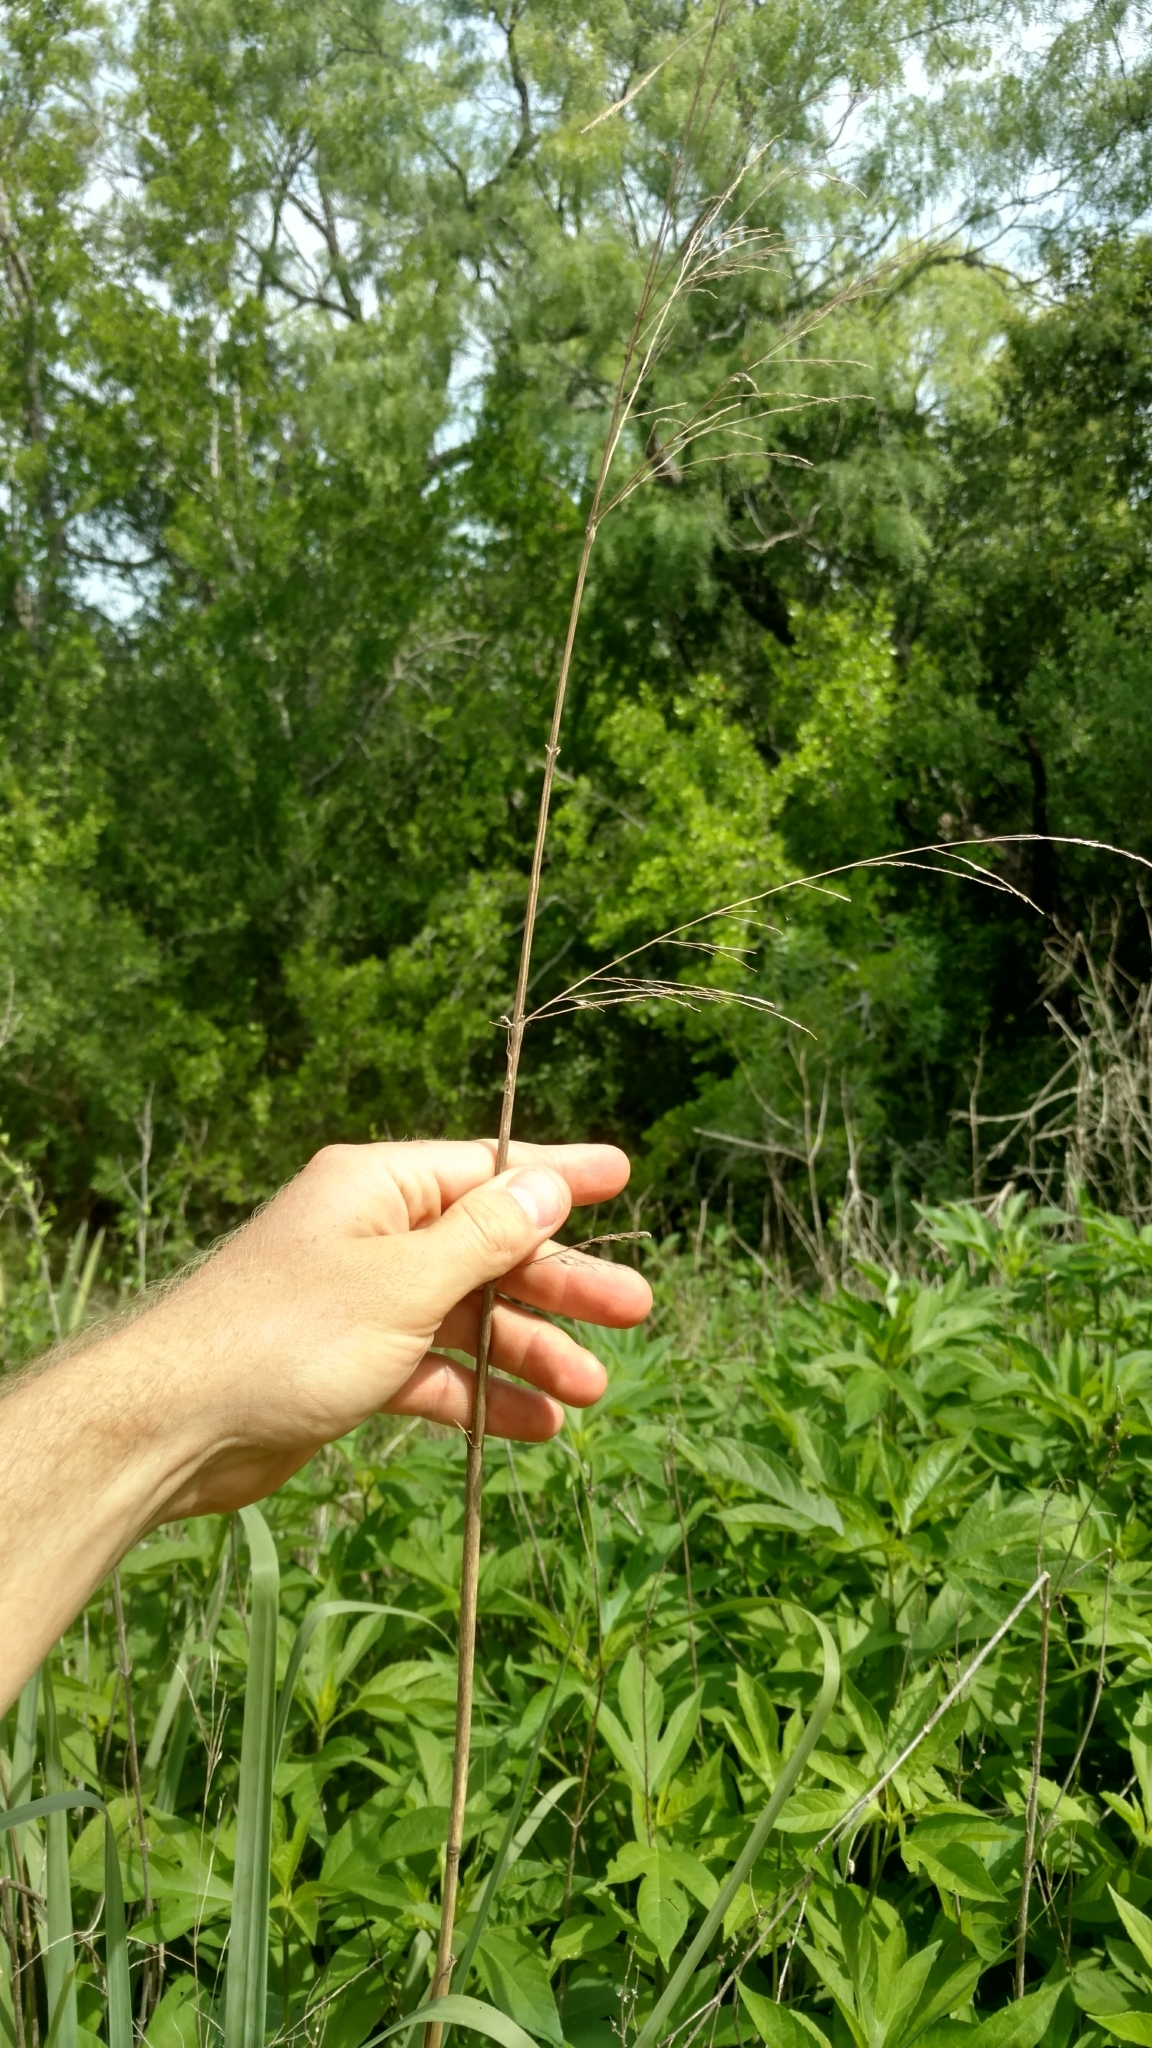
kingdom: Plantae
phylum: Tracheophyta
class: Liliopsida
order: Poales
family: Poaceae
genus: Panicum
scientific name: Panicum virgatum
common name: Switchgrass
